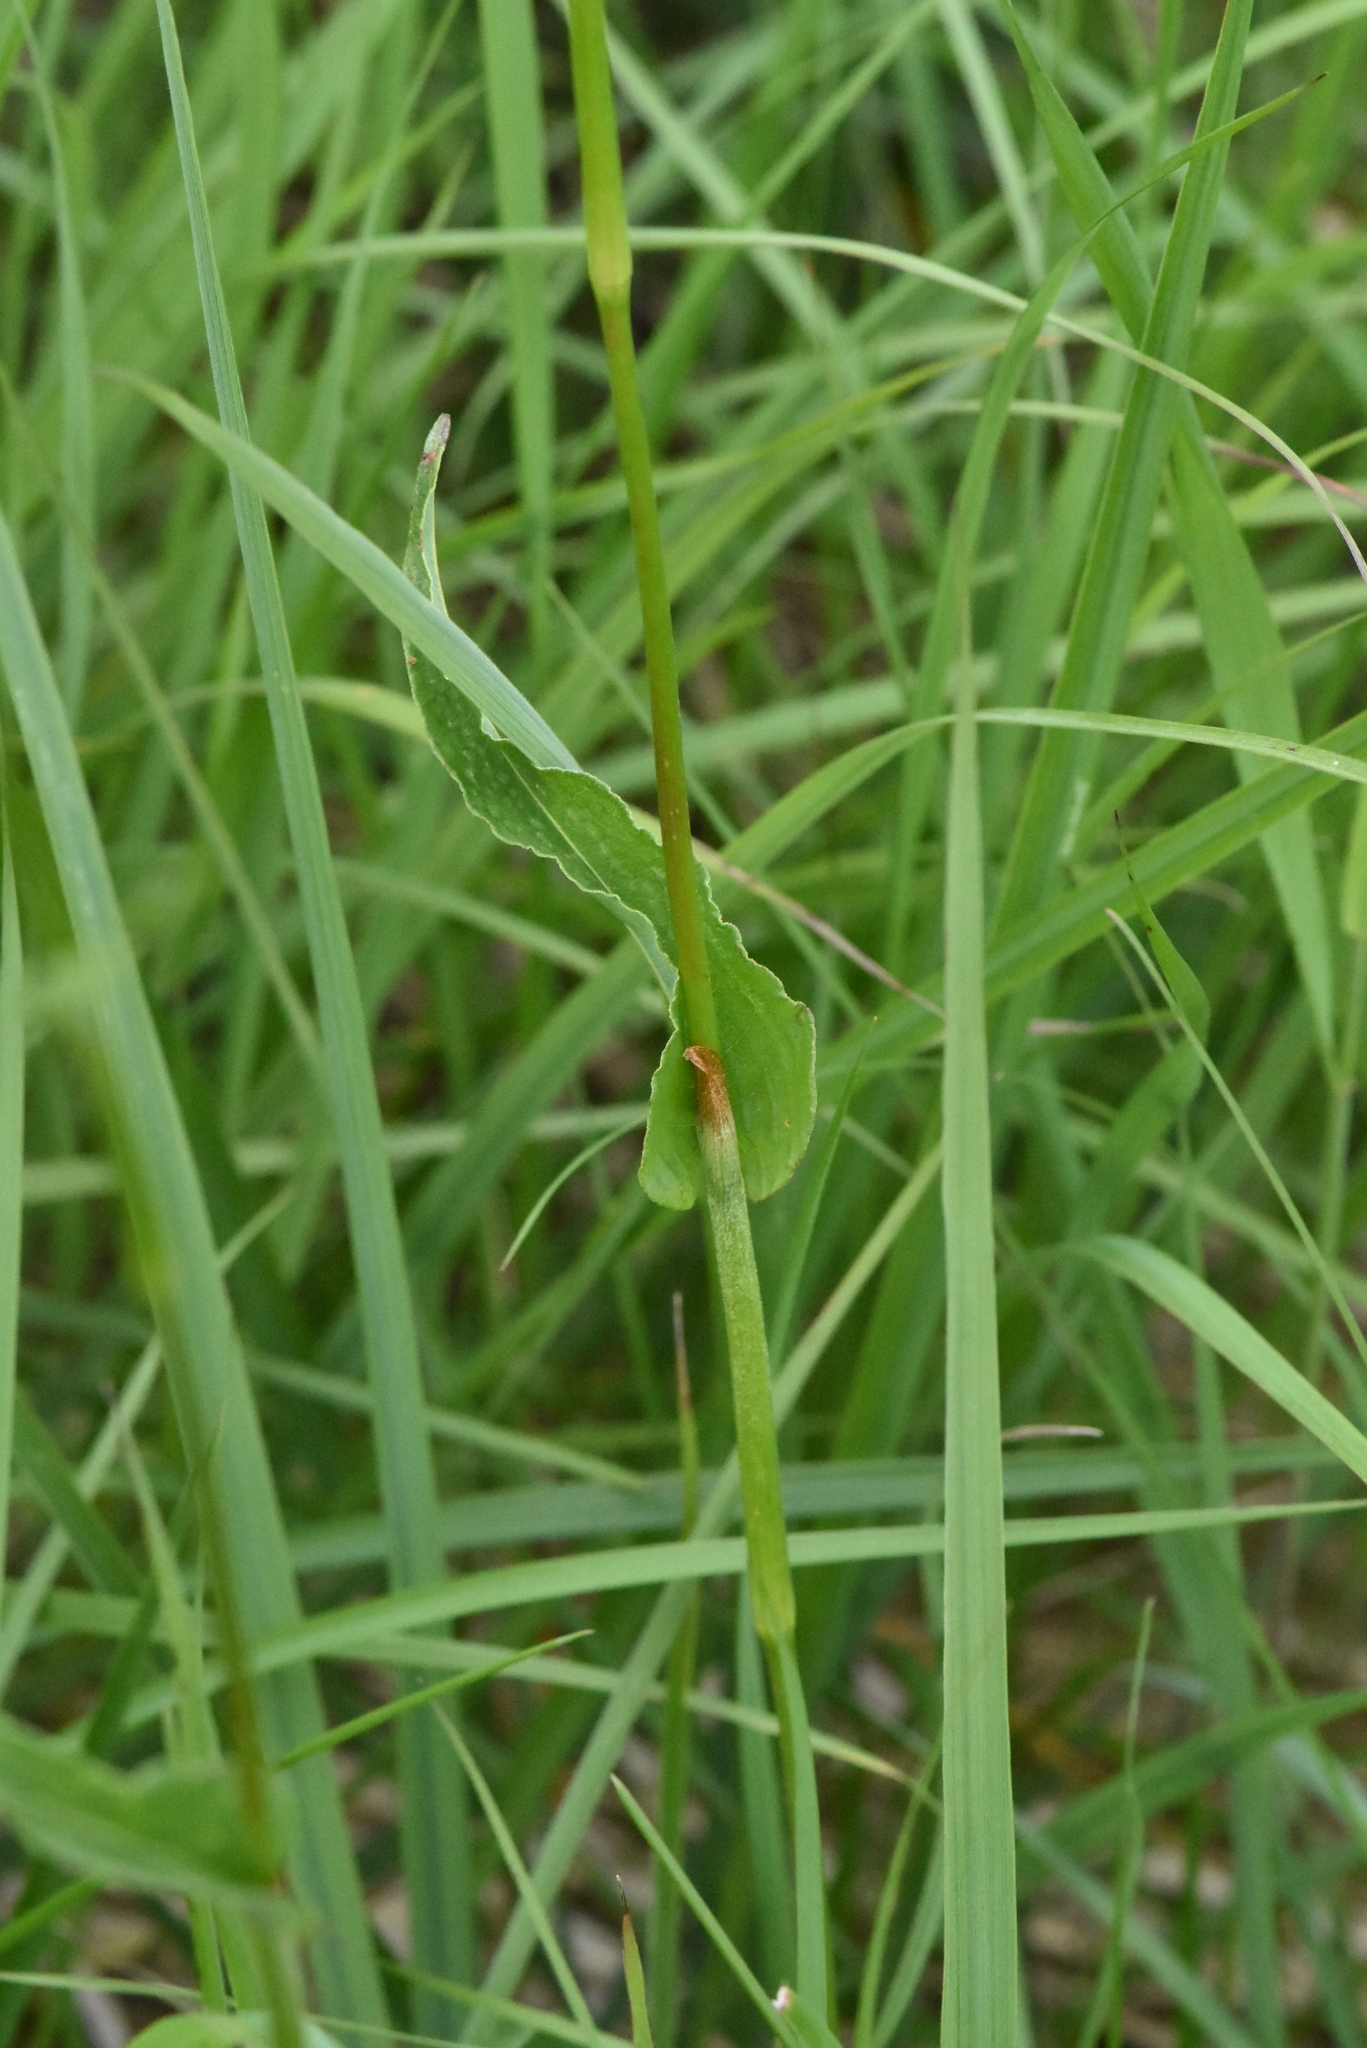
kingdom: Plantae
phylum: Tracheophyta
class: Magnoliopsida
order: Caryophyllales
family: Polygonaceae
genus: Bistorta
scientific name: Bistorta officinalis
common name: Common bistort
